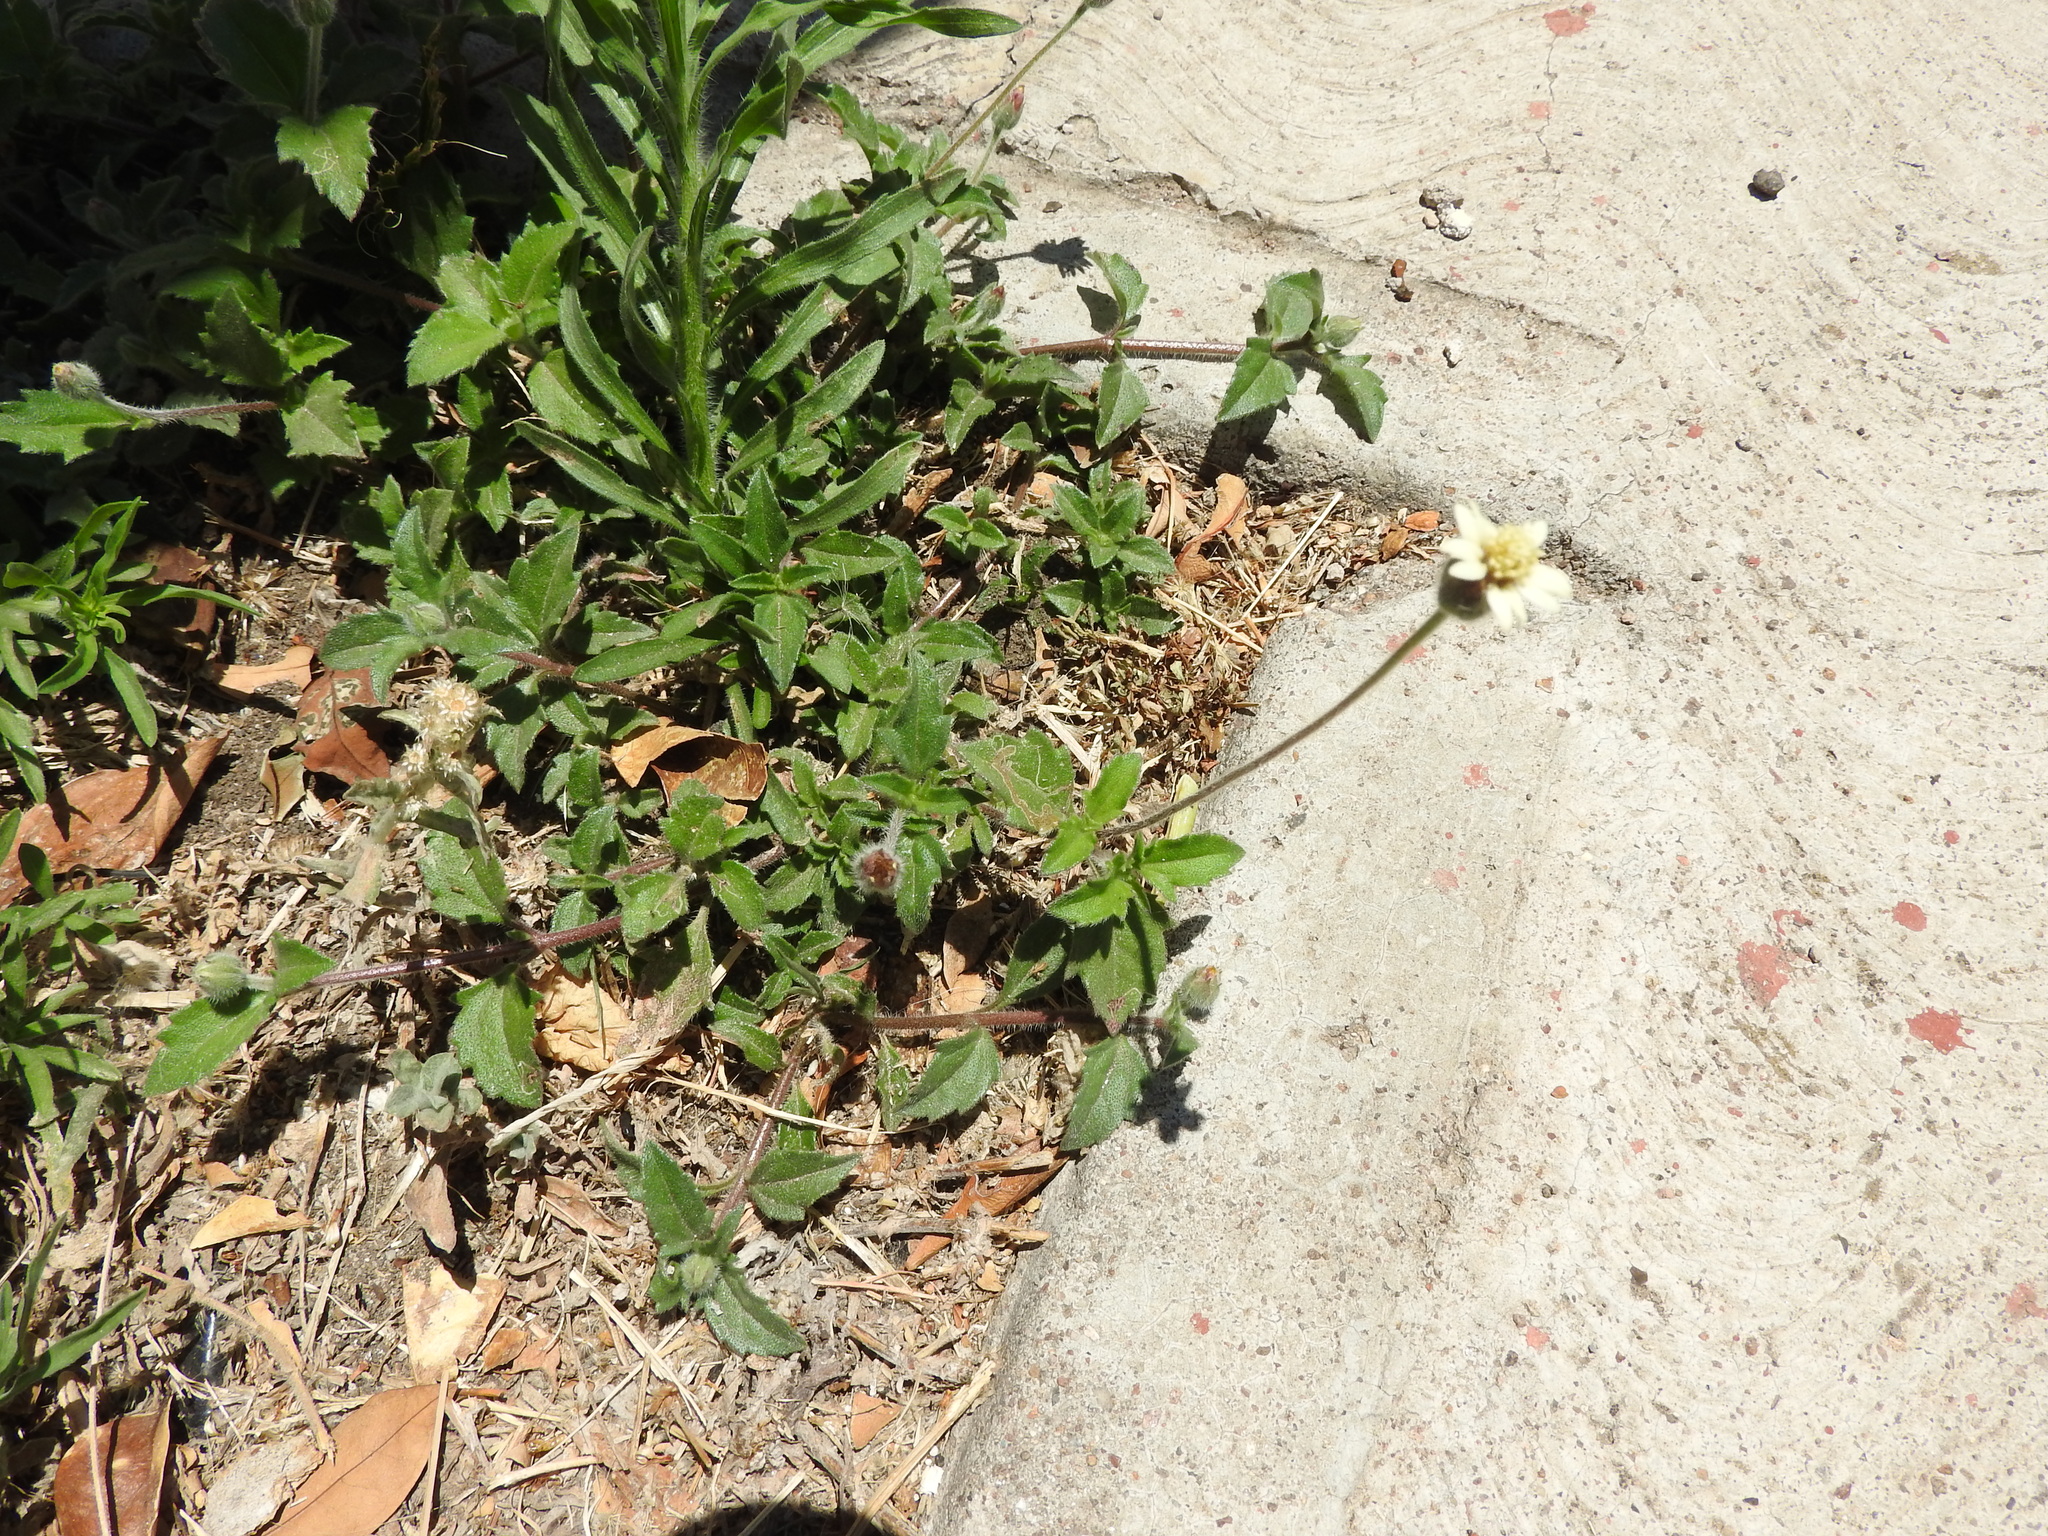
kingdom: Plantae
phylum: Tracheophyta
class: Magnoliopsida
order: Asterales
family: Asteraceae
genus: Tridax
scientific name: Tridax procumbens
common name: Coatbuttons
